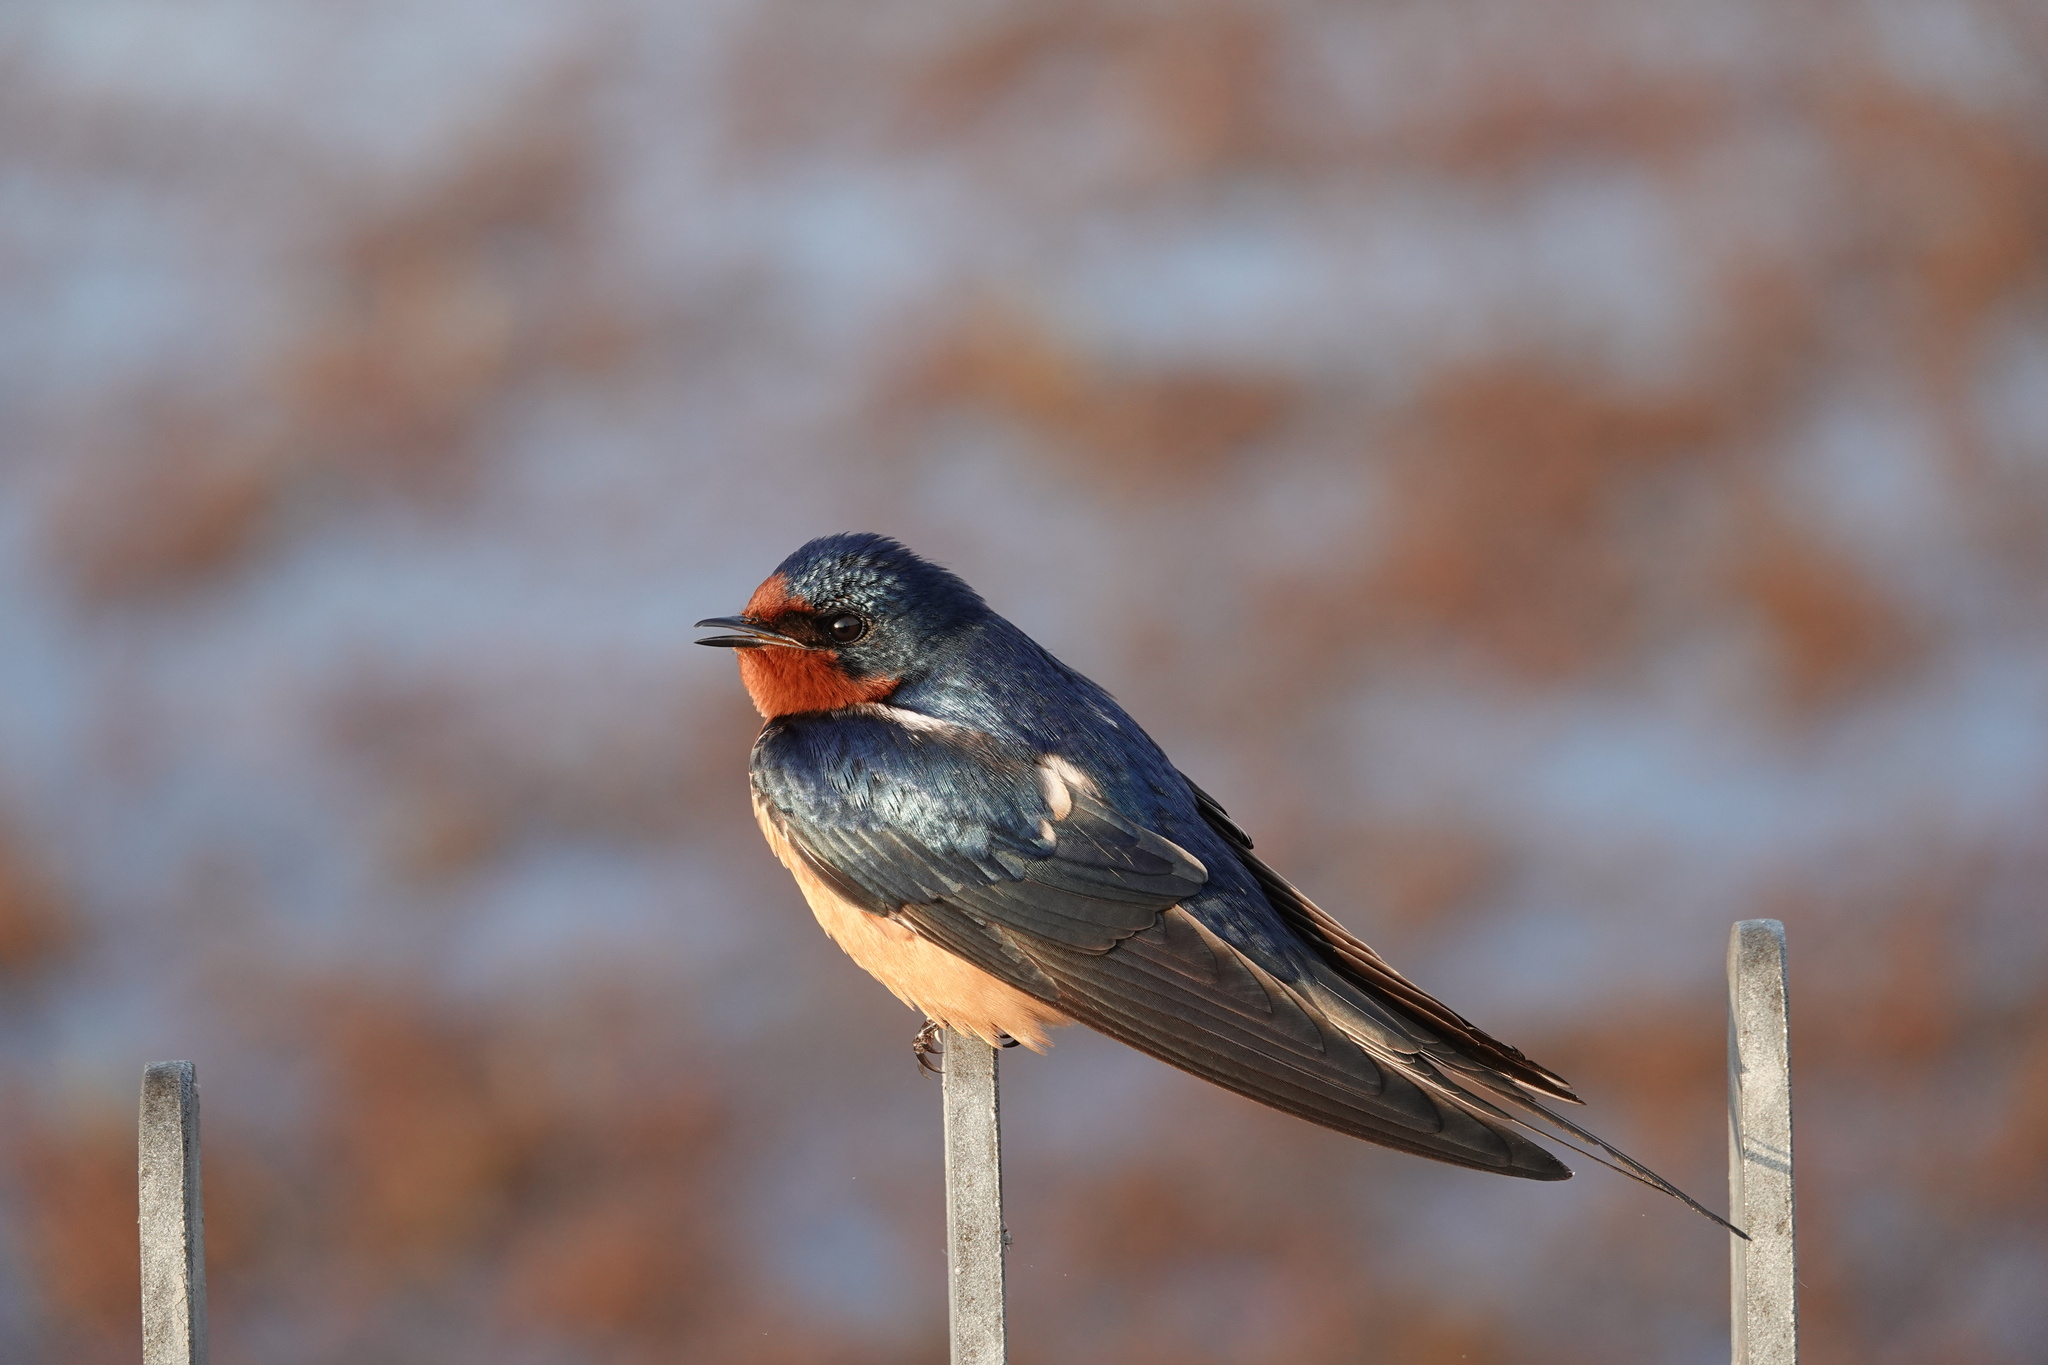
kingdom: Animalia
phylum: Chordata
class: Aves
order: Passeriformes
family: Hirundinidae
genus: Hirundo
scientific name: Hirundo rustica
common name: Barn swallow
